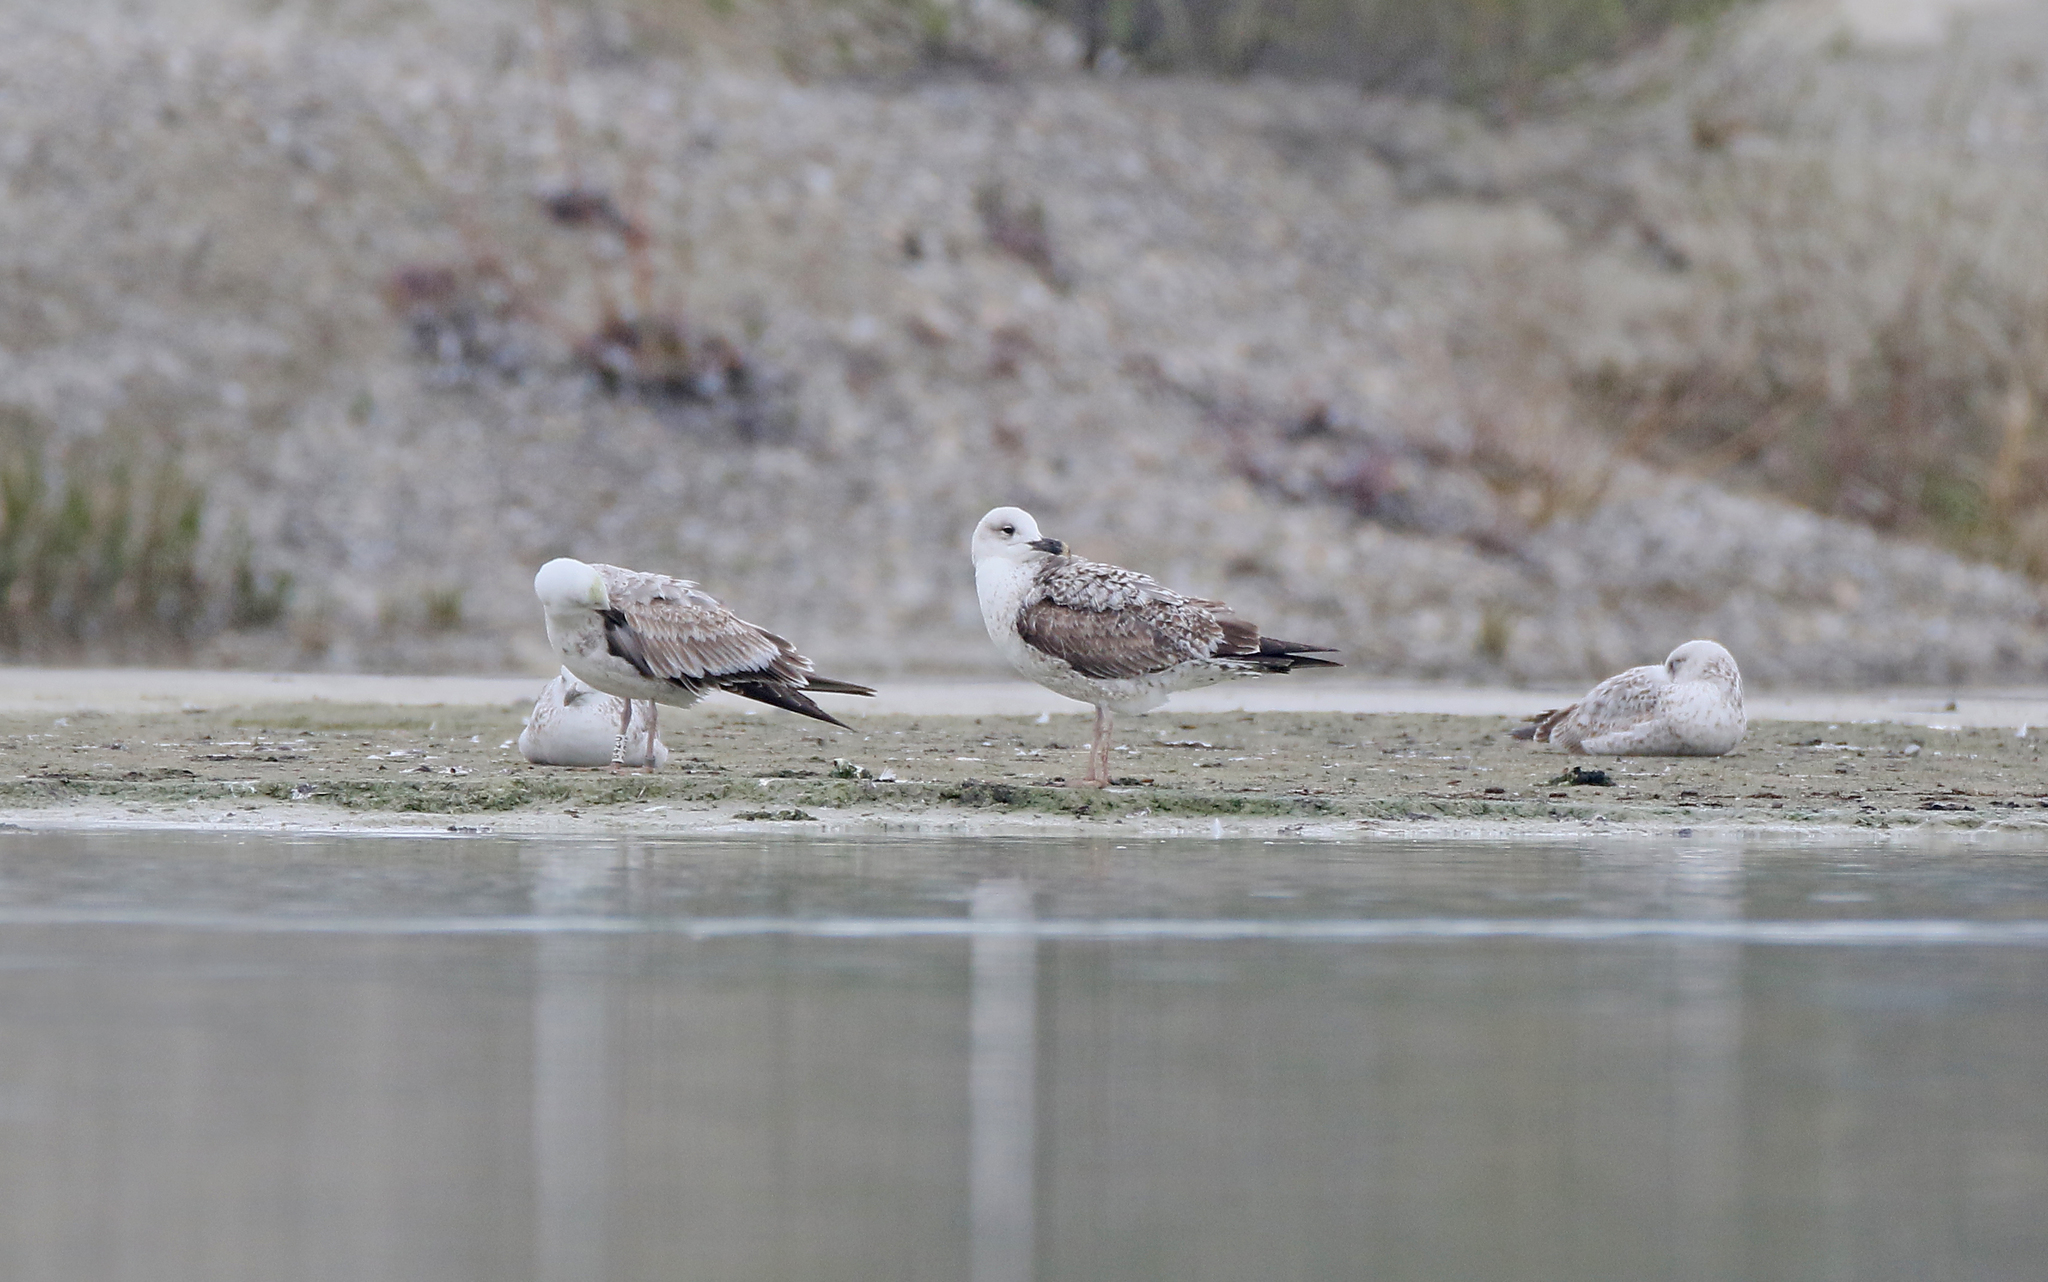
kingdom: Animalia
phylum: Chordata
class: Aves
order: Charadriiformes
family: Laridae
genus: Larus
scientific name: Larus michahellis
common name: Yellow-legged gull
